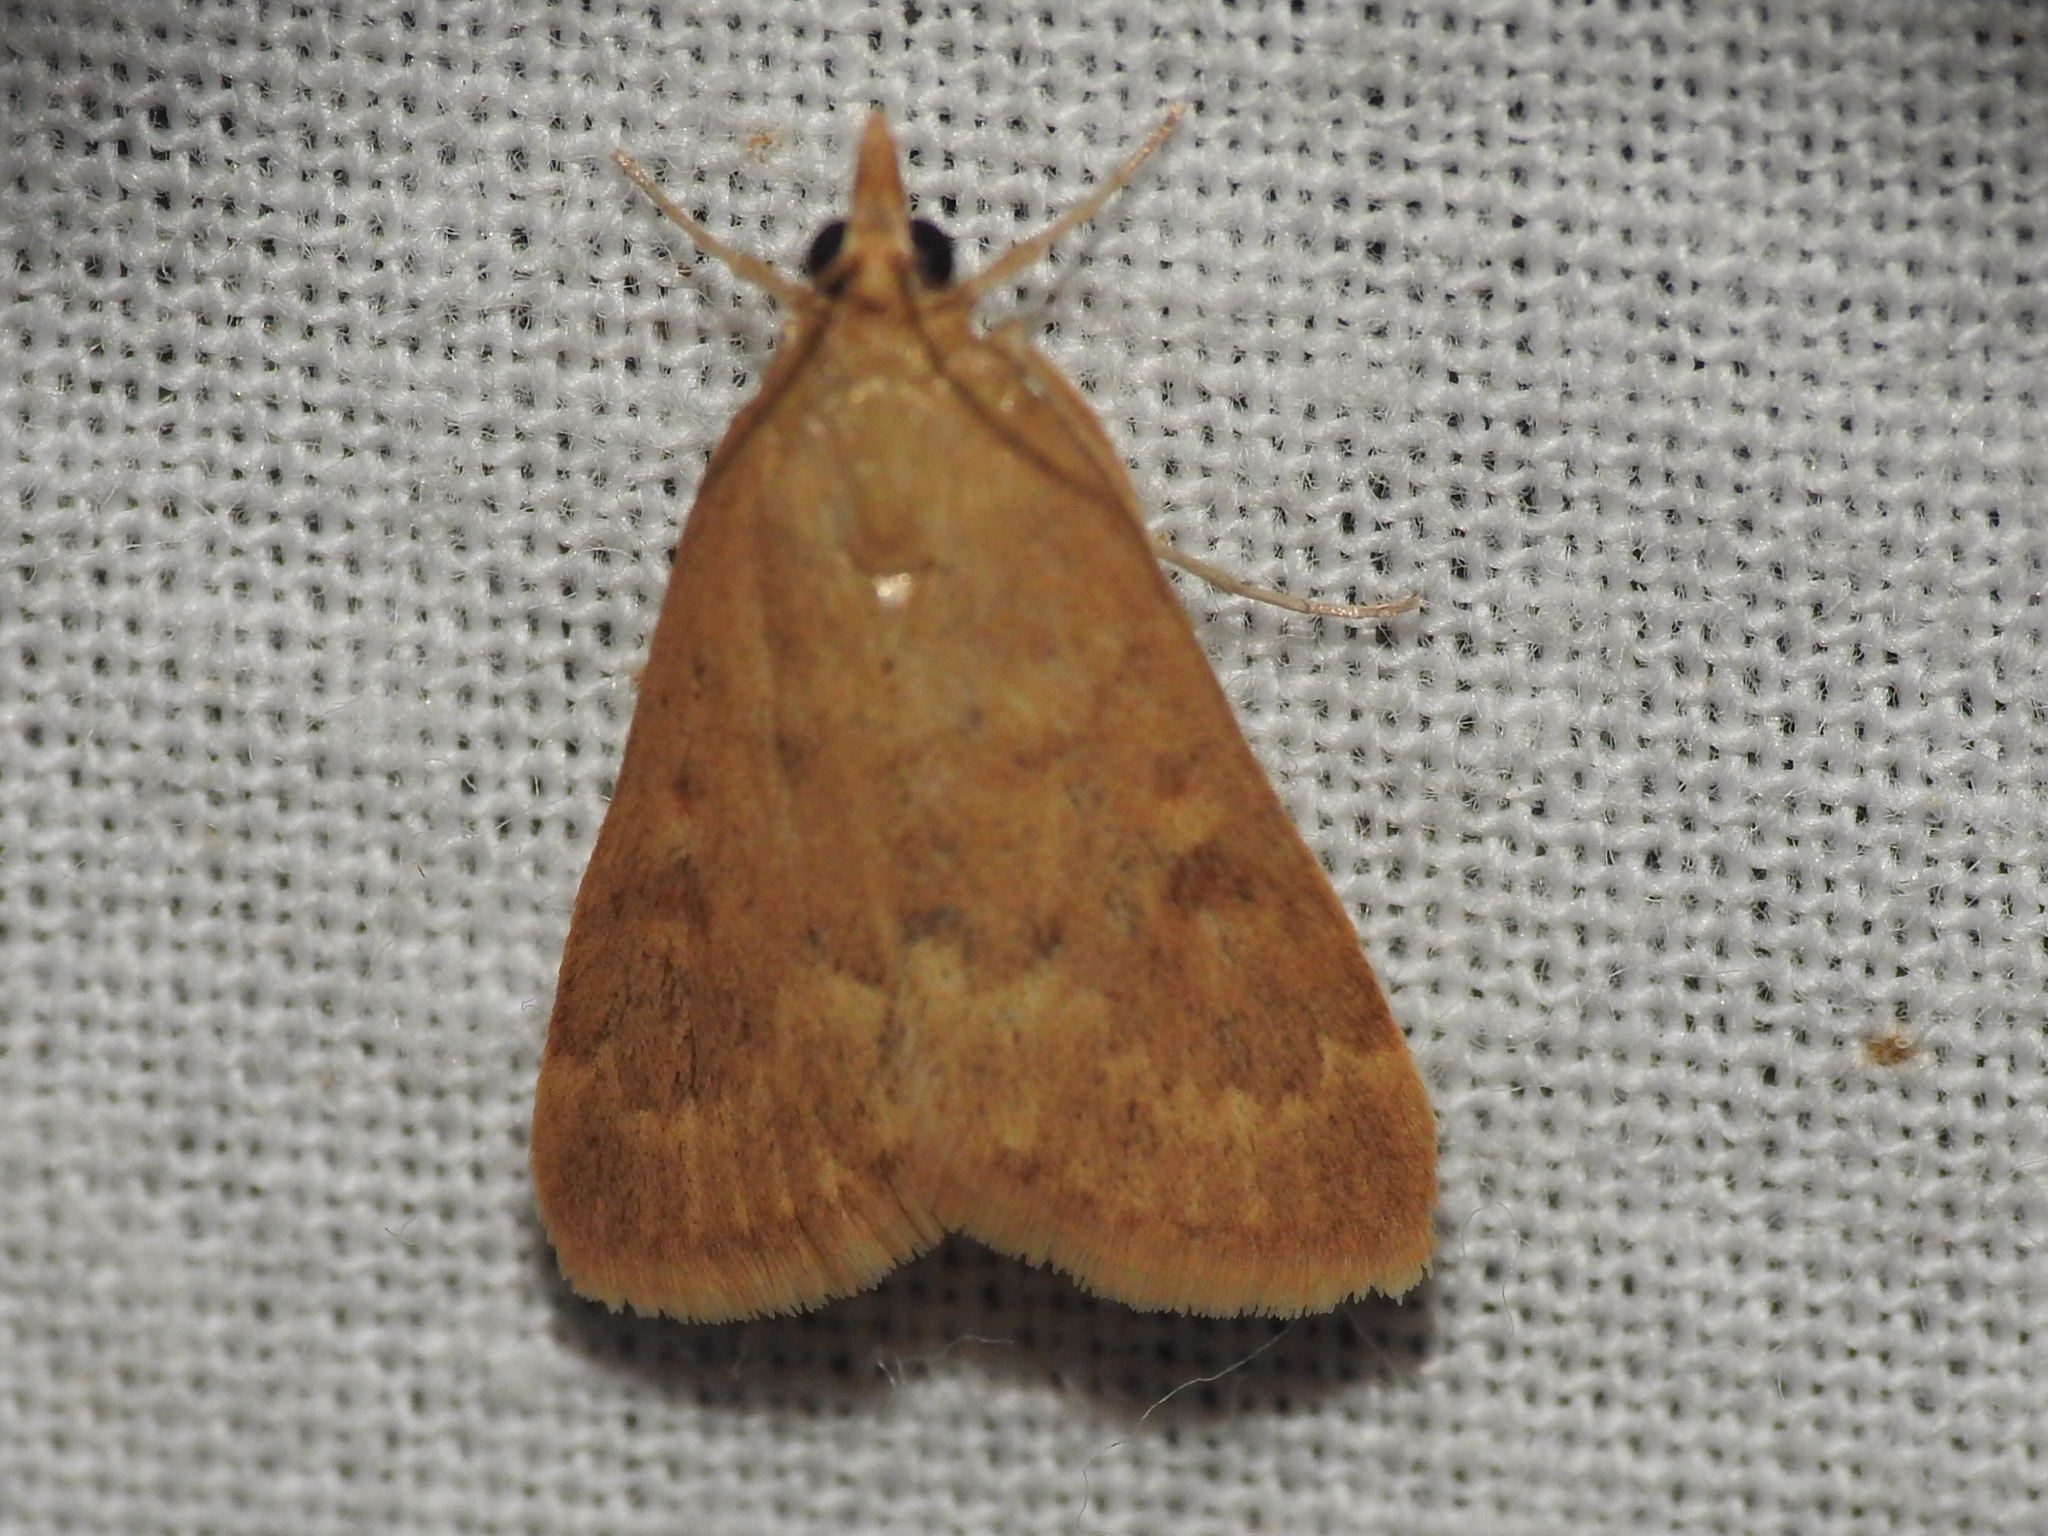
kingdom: Animalia
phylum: Arthropoda
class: Insecta
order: Lepidoptera
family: Crambidae
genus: Achyra
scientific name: Achyra rantalis
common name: Garden webworm
